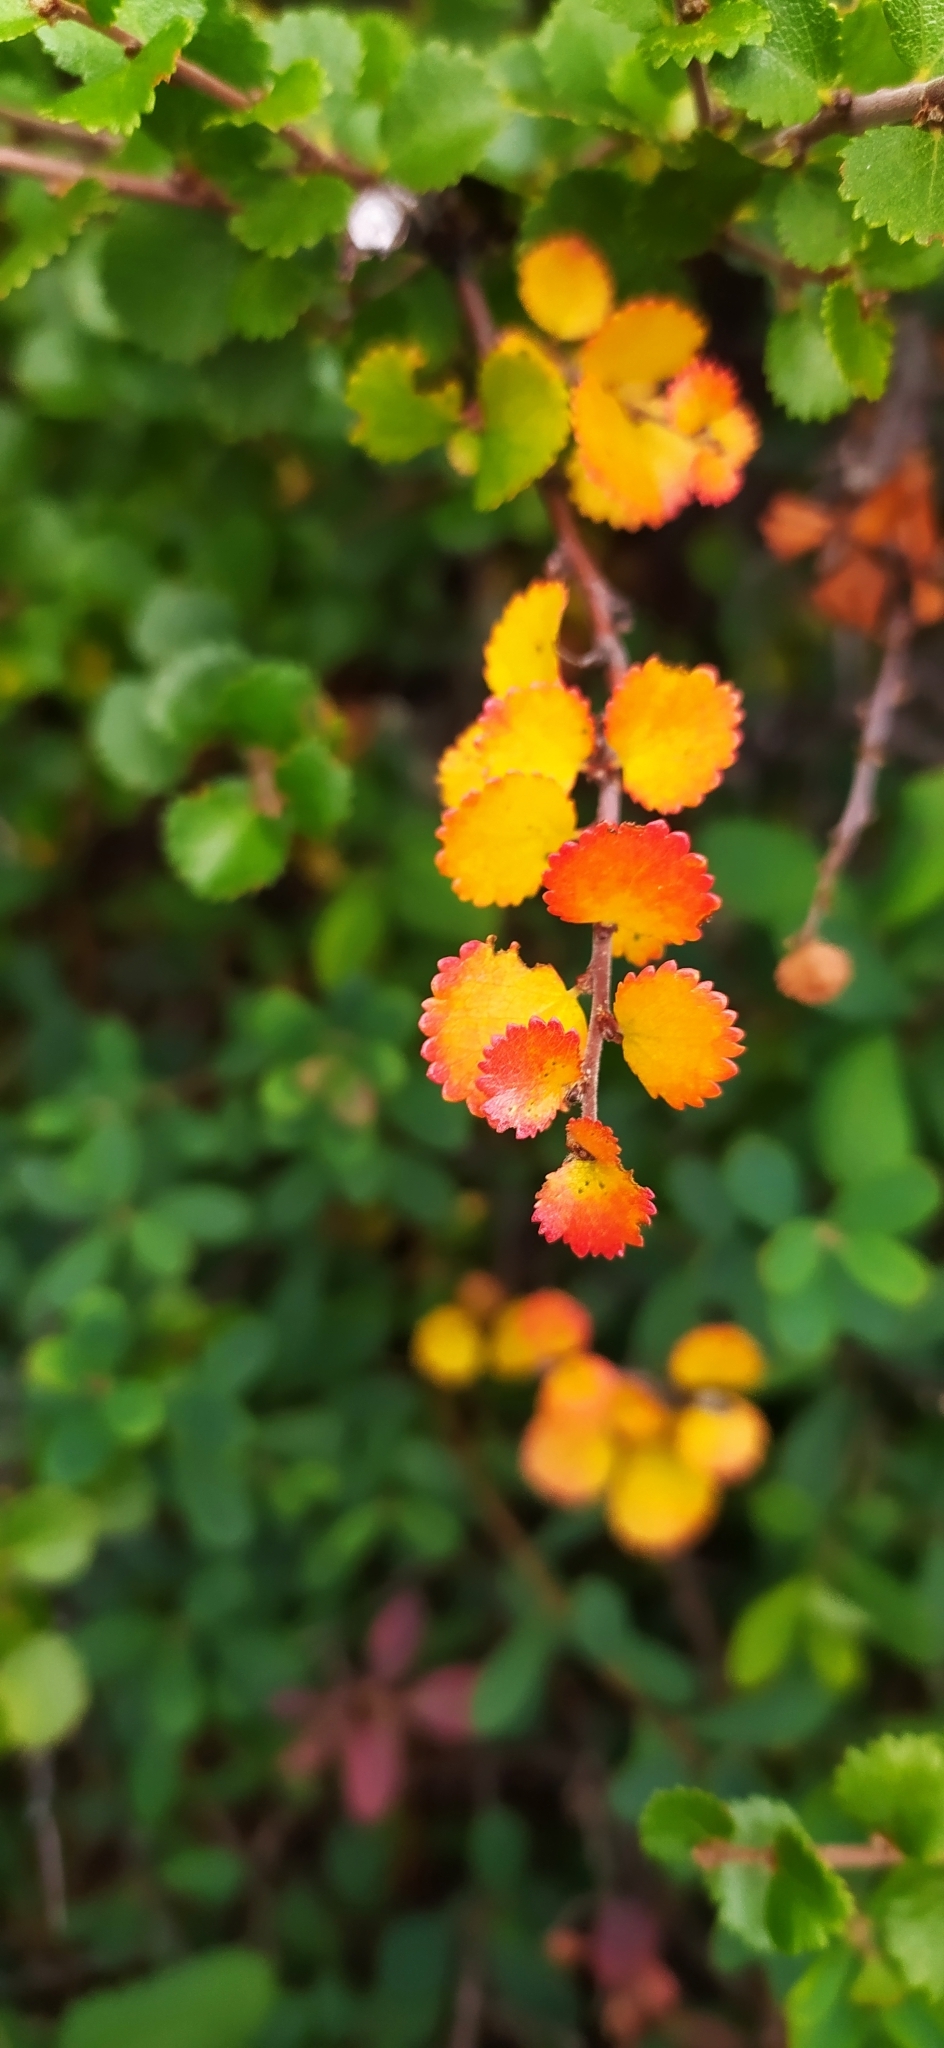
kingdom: Plantae
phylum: Tracheophyta
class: Magnoliopsida
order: Fagales
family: Betulaceae
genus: Betula
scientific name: Betula nana
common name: Arctic dwarf birch
